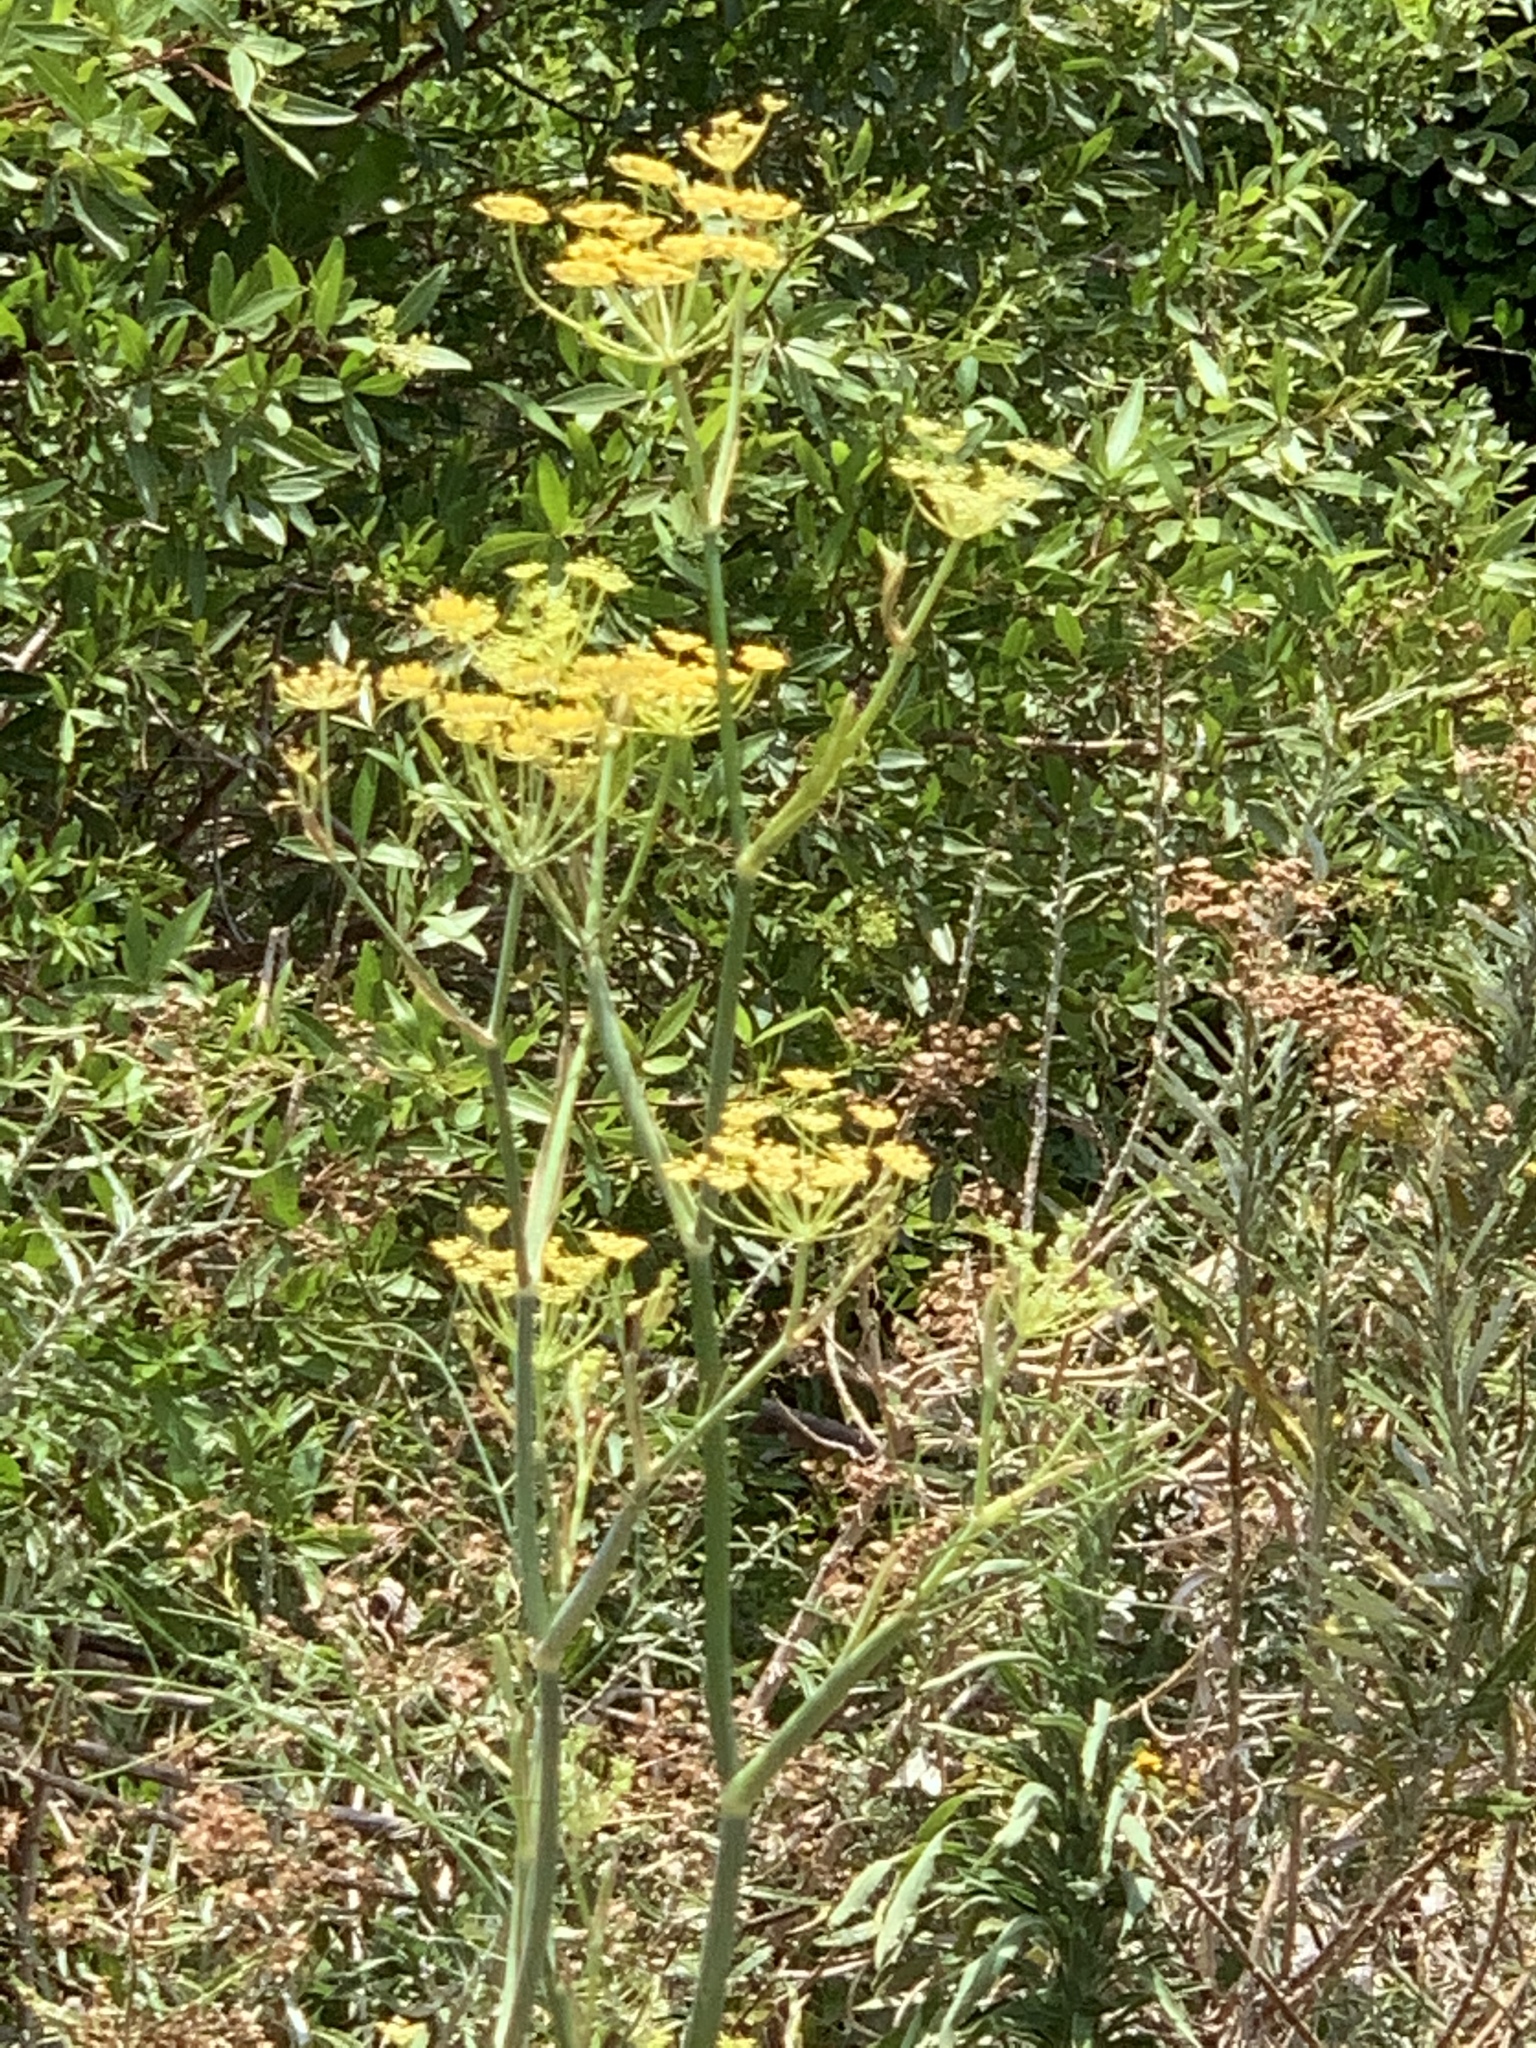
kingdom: Plantae
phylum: Tracheophyta
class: Magnoliopsida
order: Apiales
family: Apiaceae
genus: Foeniculum
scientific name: Foeniculum vulgare
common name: Fennel
